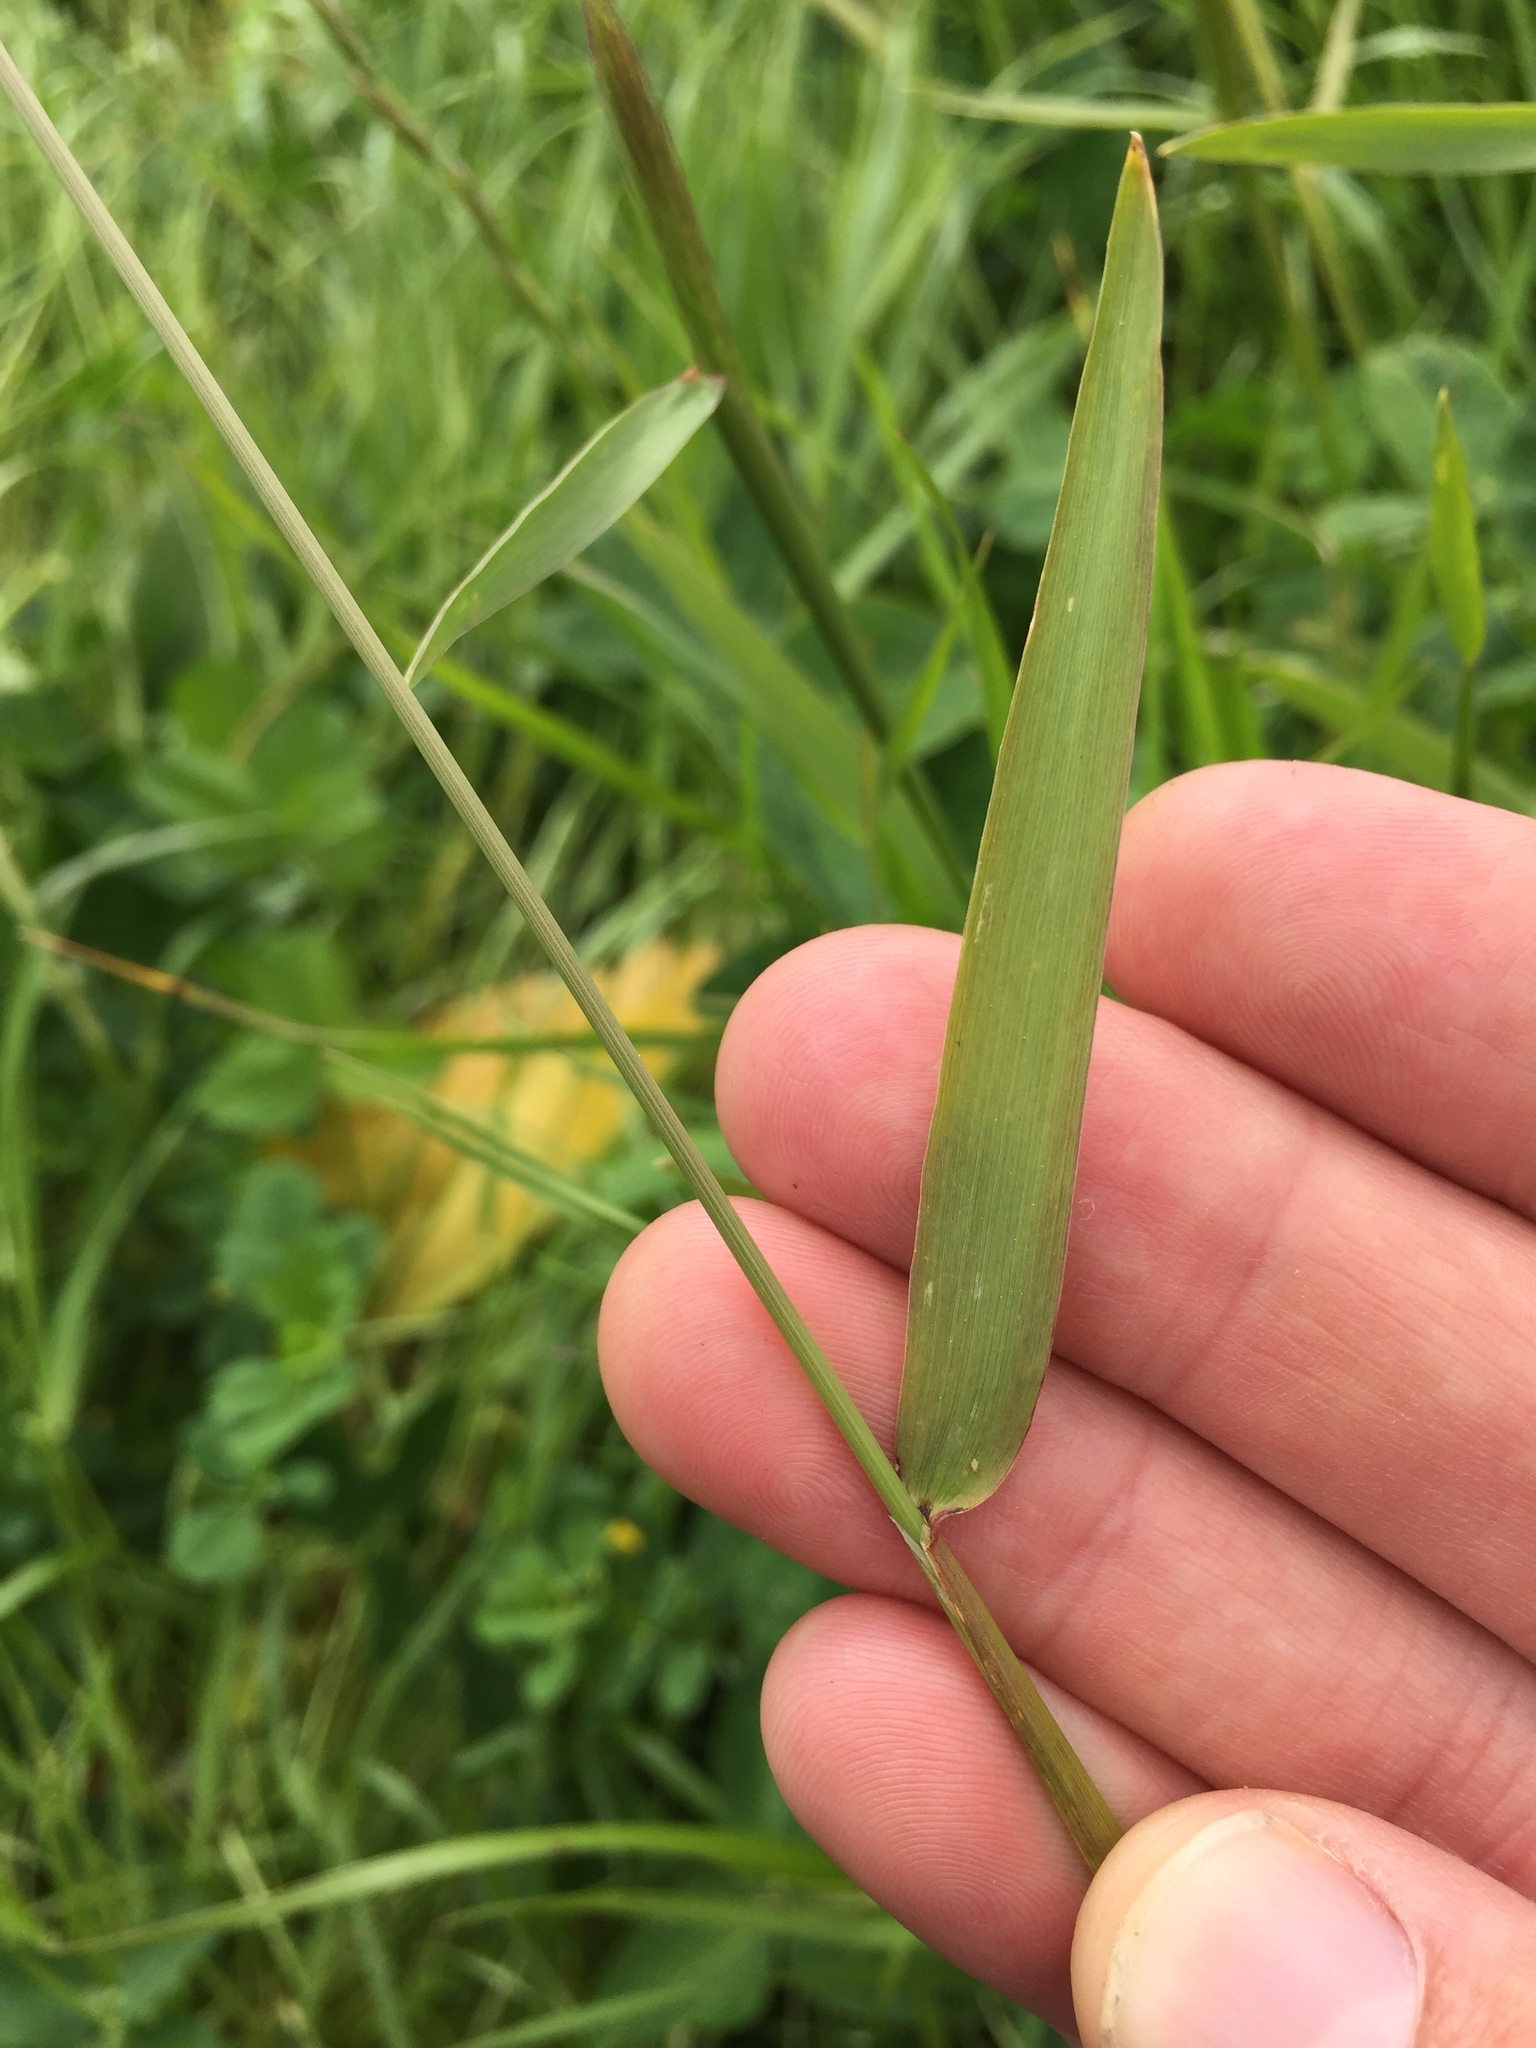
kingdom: Plantae
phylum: Tracheophyta
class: Liliopsida
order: Poales
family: Poaceae
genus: Hordeum
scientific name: Hordeum brachyantherum
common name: Meadow barley
